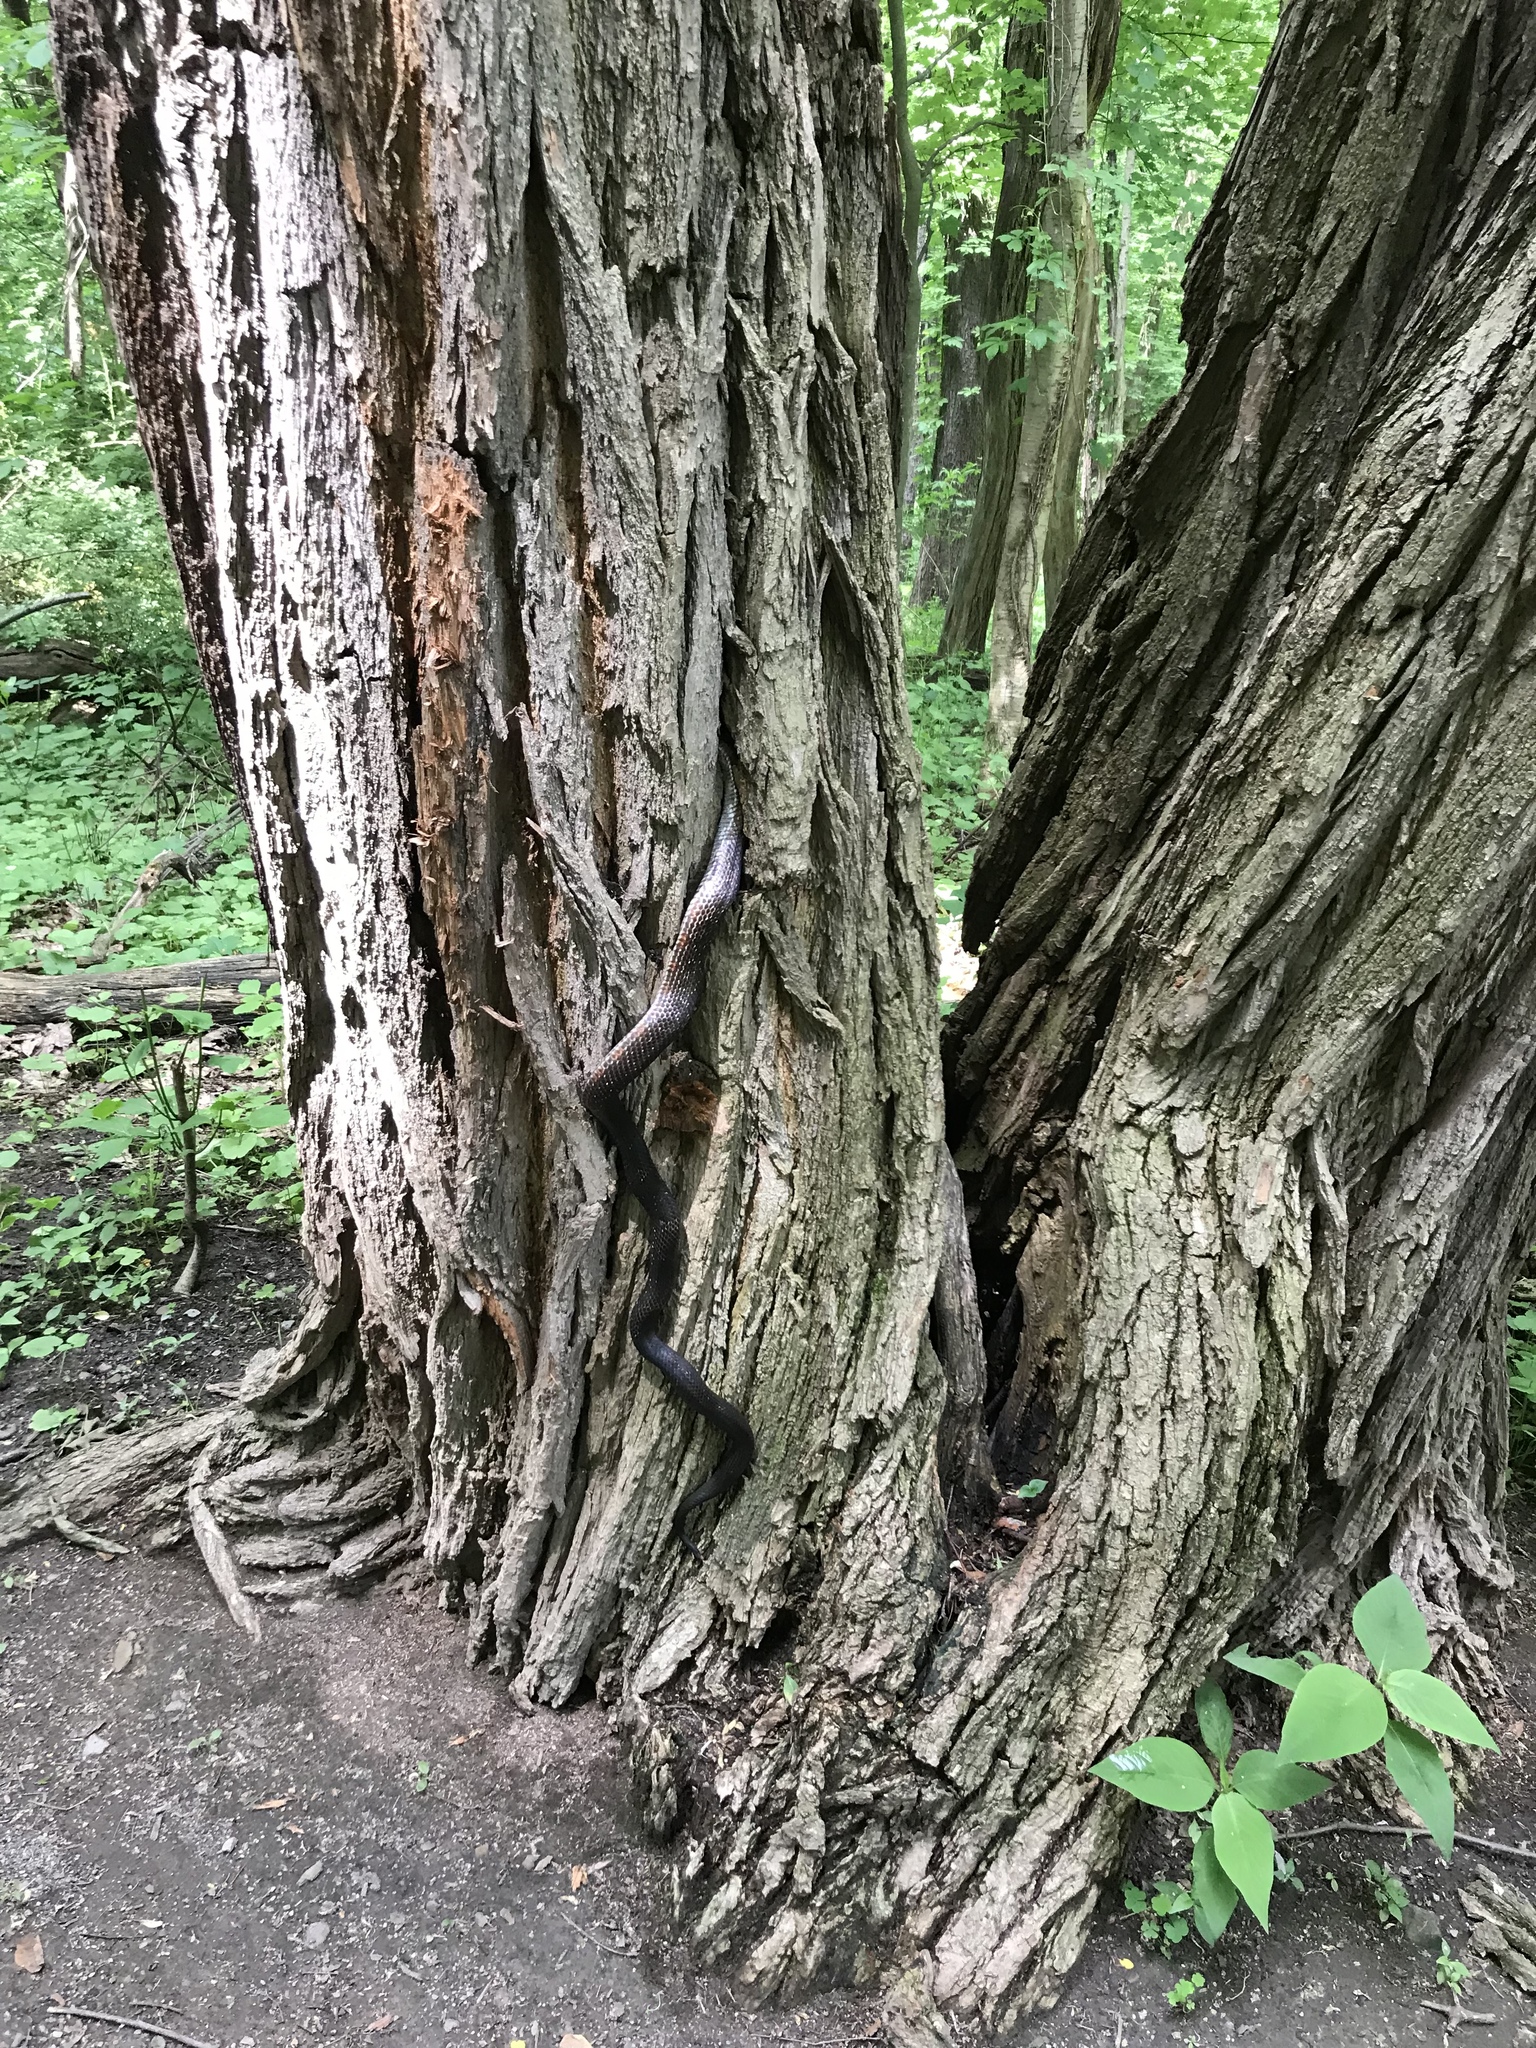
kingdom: Animalia
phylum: Chordata
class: Squamata
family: Colubridae
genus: Pantherophis
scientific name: Pantherophis spiloides
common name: Gray rat snake
